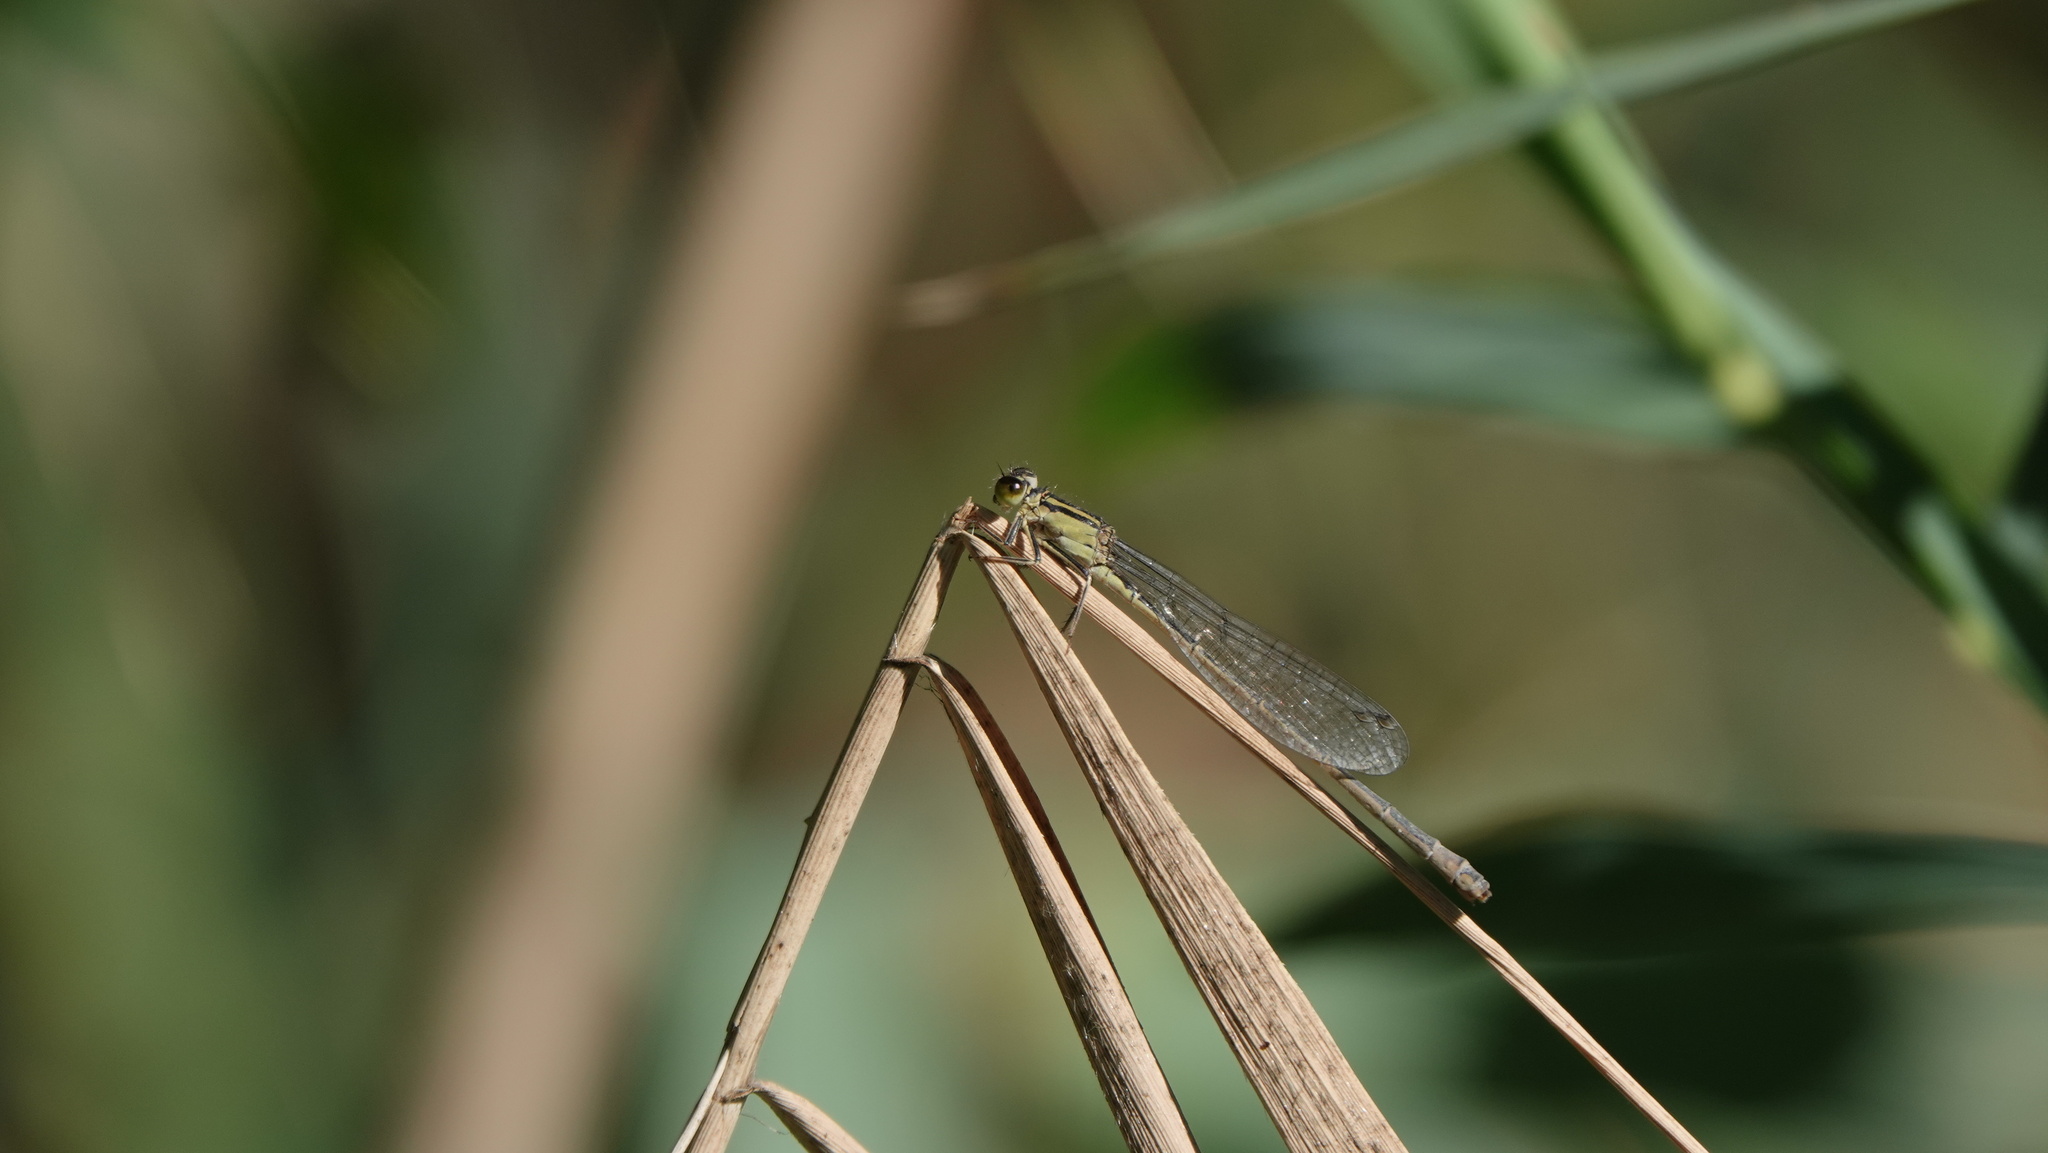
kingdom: Animalia
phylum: Arthropoda
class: Insecta
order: Odonata
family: Coenagrionidae
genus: Ischnura
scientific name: Ischnura elegans
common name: Blue-tailed damselfly
